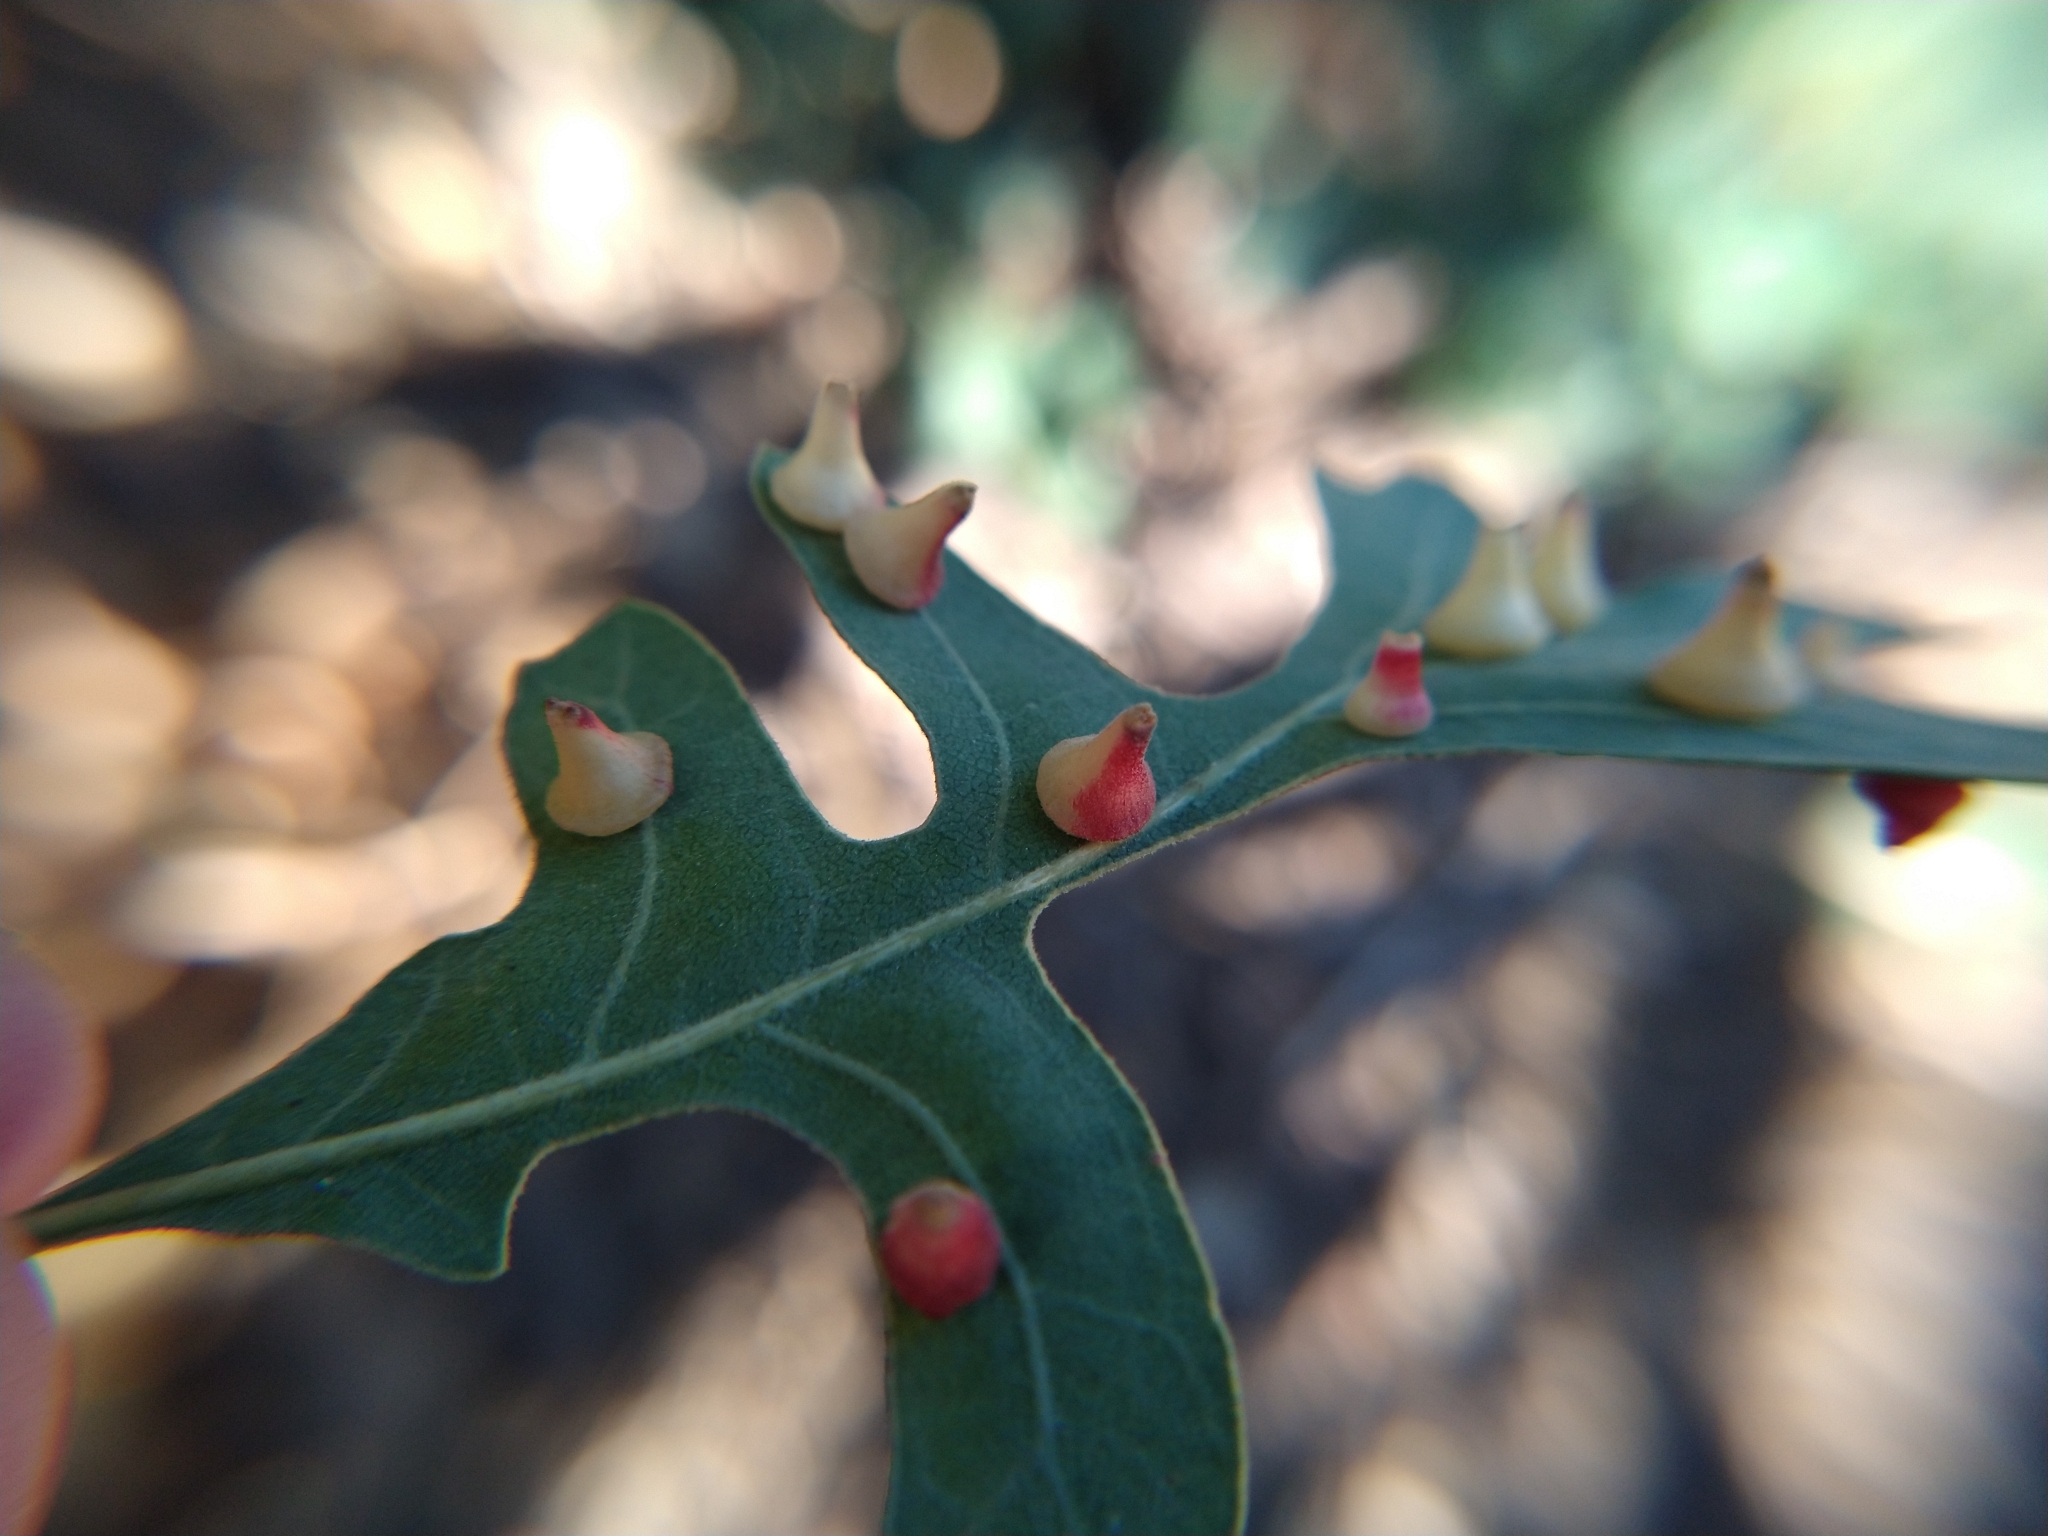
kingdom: Animalia
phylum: Arthropoda
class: Insecta
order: Hymenoptera
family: Cynipidae
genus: Andricus
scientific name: Andricus
